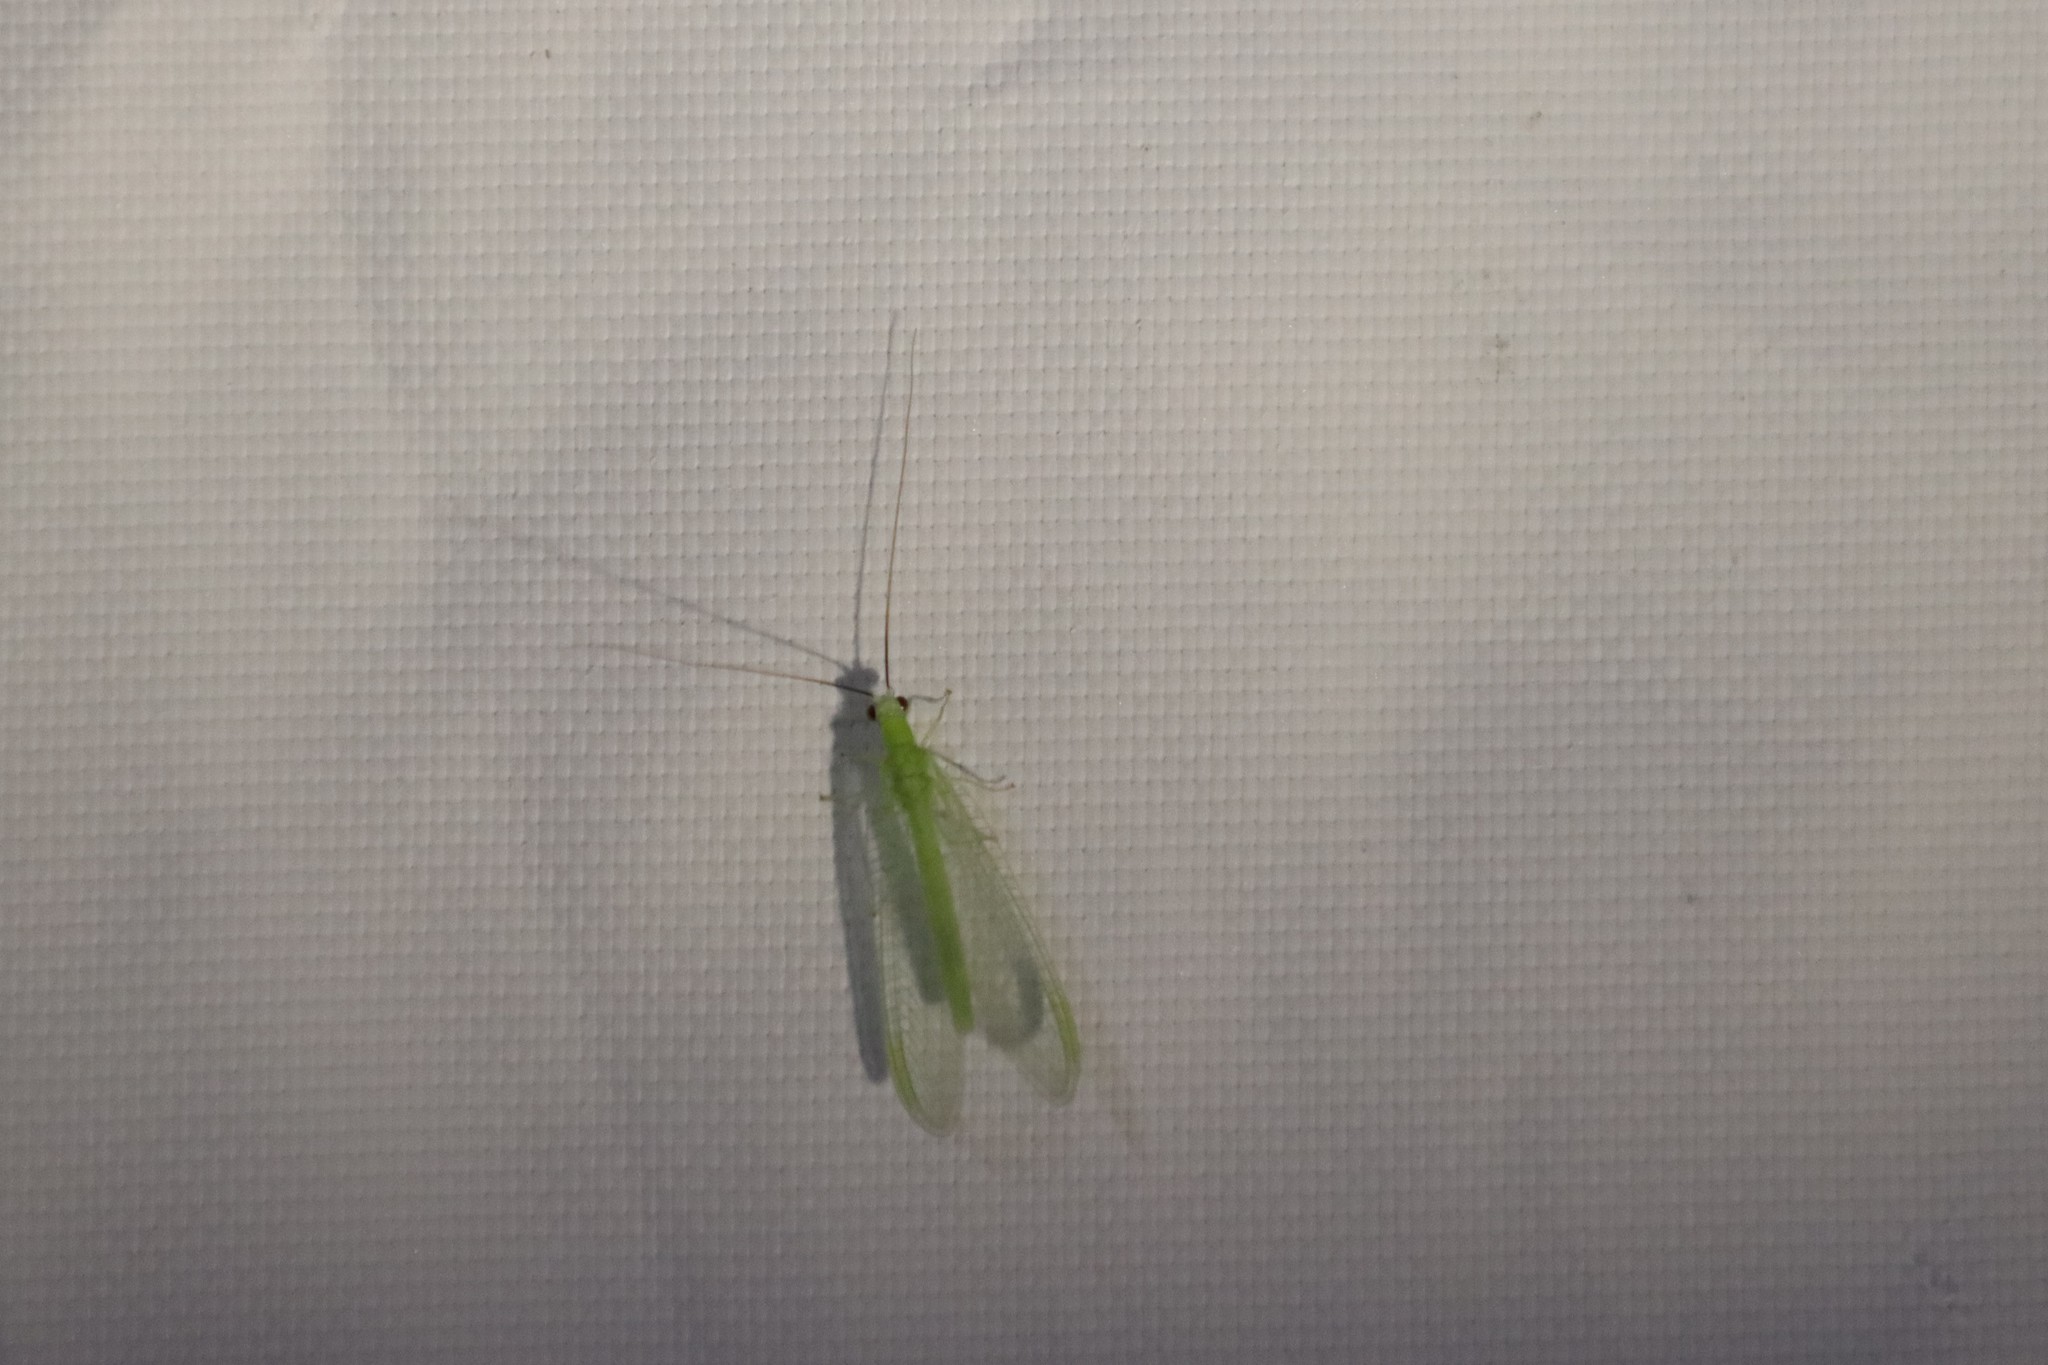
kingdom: Animalia
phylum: Arthropoda
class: Insecta
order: Neuroptera
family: Chrysopidae
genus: Chrysopa
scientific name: Chrysopa nigricornis
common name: Black-horned green lacewing
